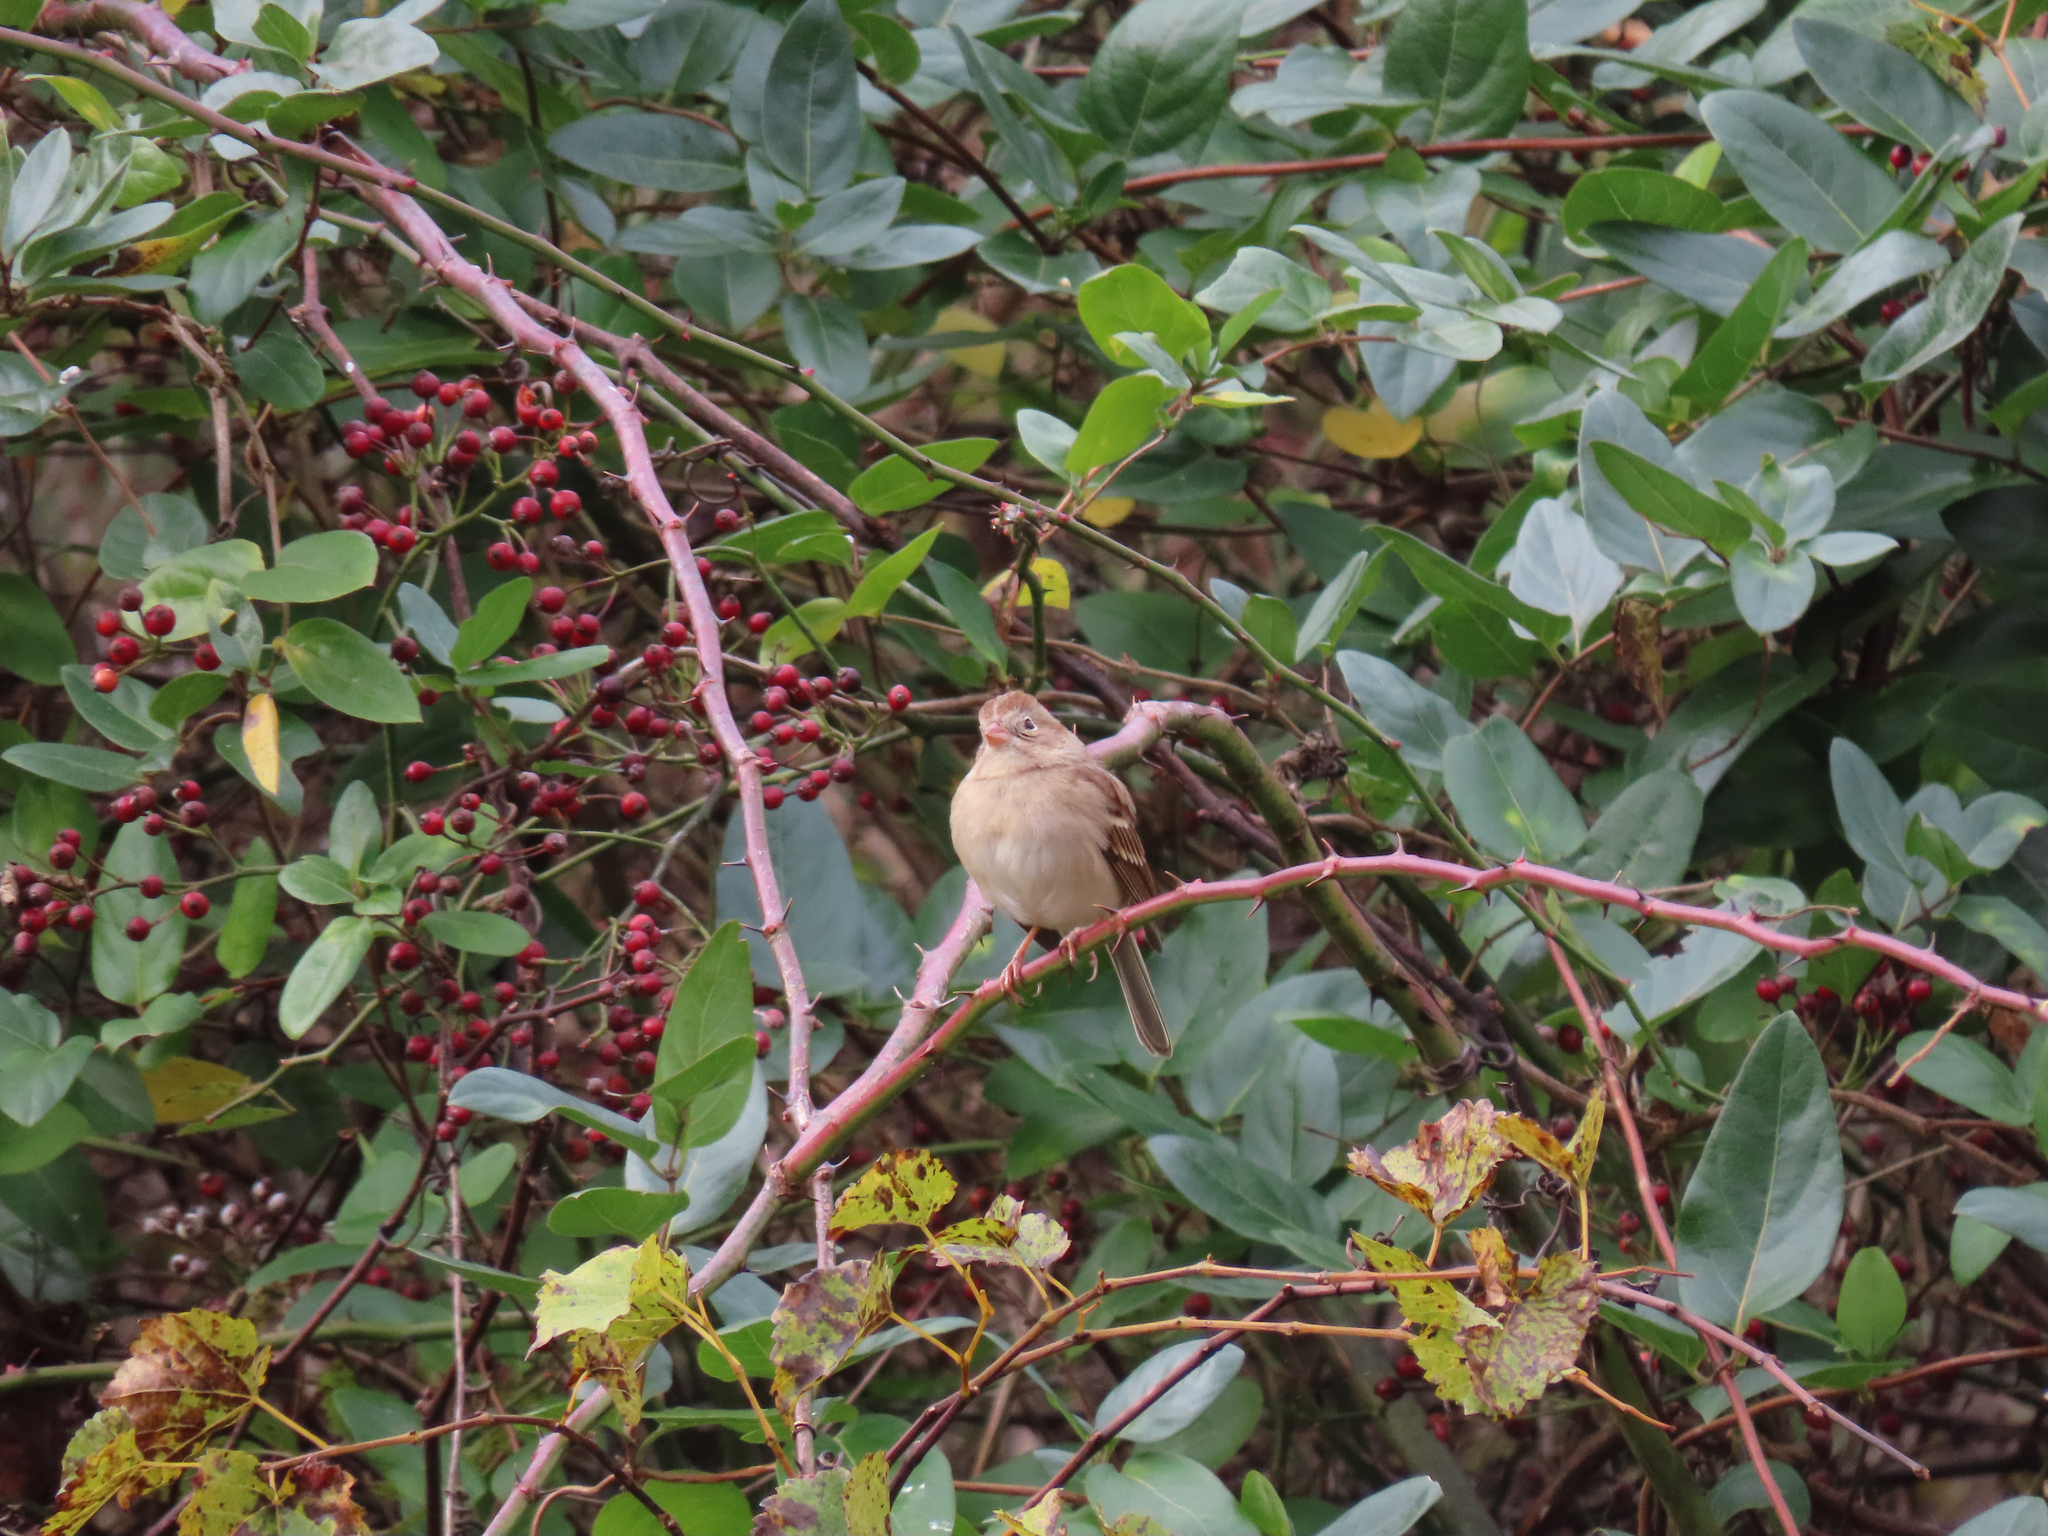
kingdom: Animalia
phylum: Chordata
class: Aves
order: Passeriformes
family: Passerellidae
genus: Spizella
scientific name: Spizella pusilla
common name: Field sparrow
